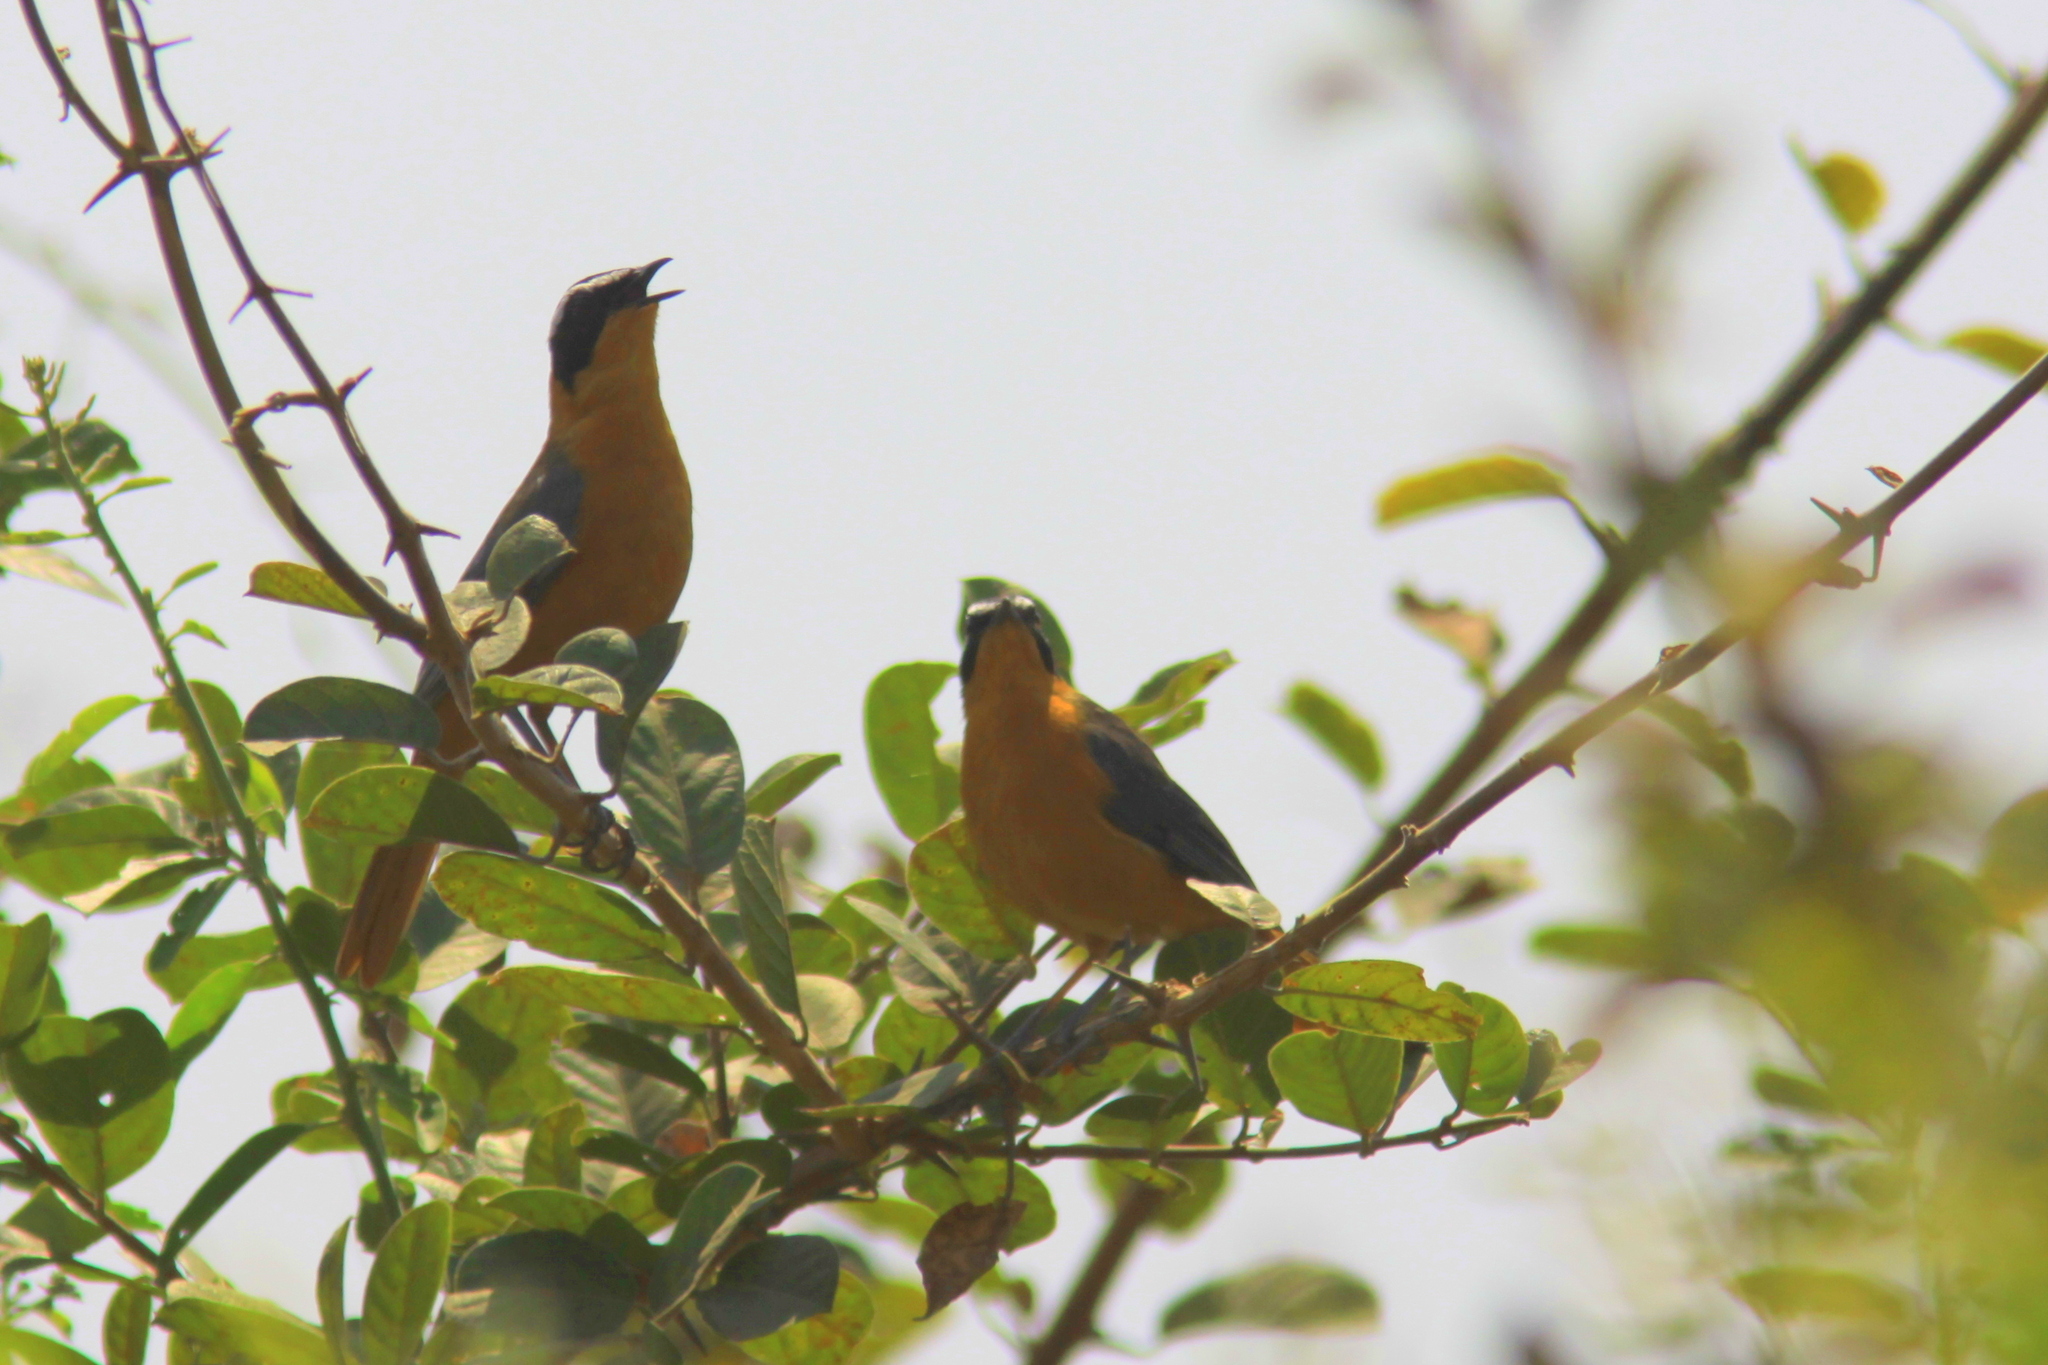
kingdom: Animalia
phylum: Chordata
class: Aves
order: Passeriformes
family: Muscicapidae
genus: Cossypha
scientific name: Cossypha heuglini
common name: White-browed robin-chat
